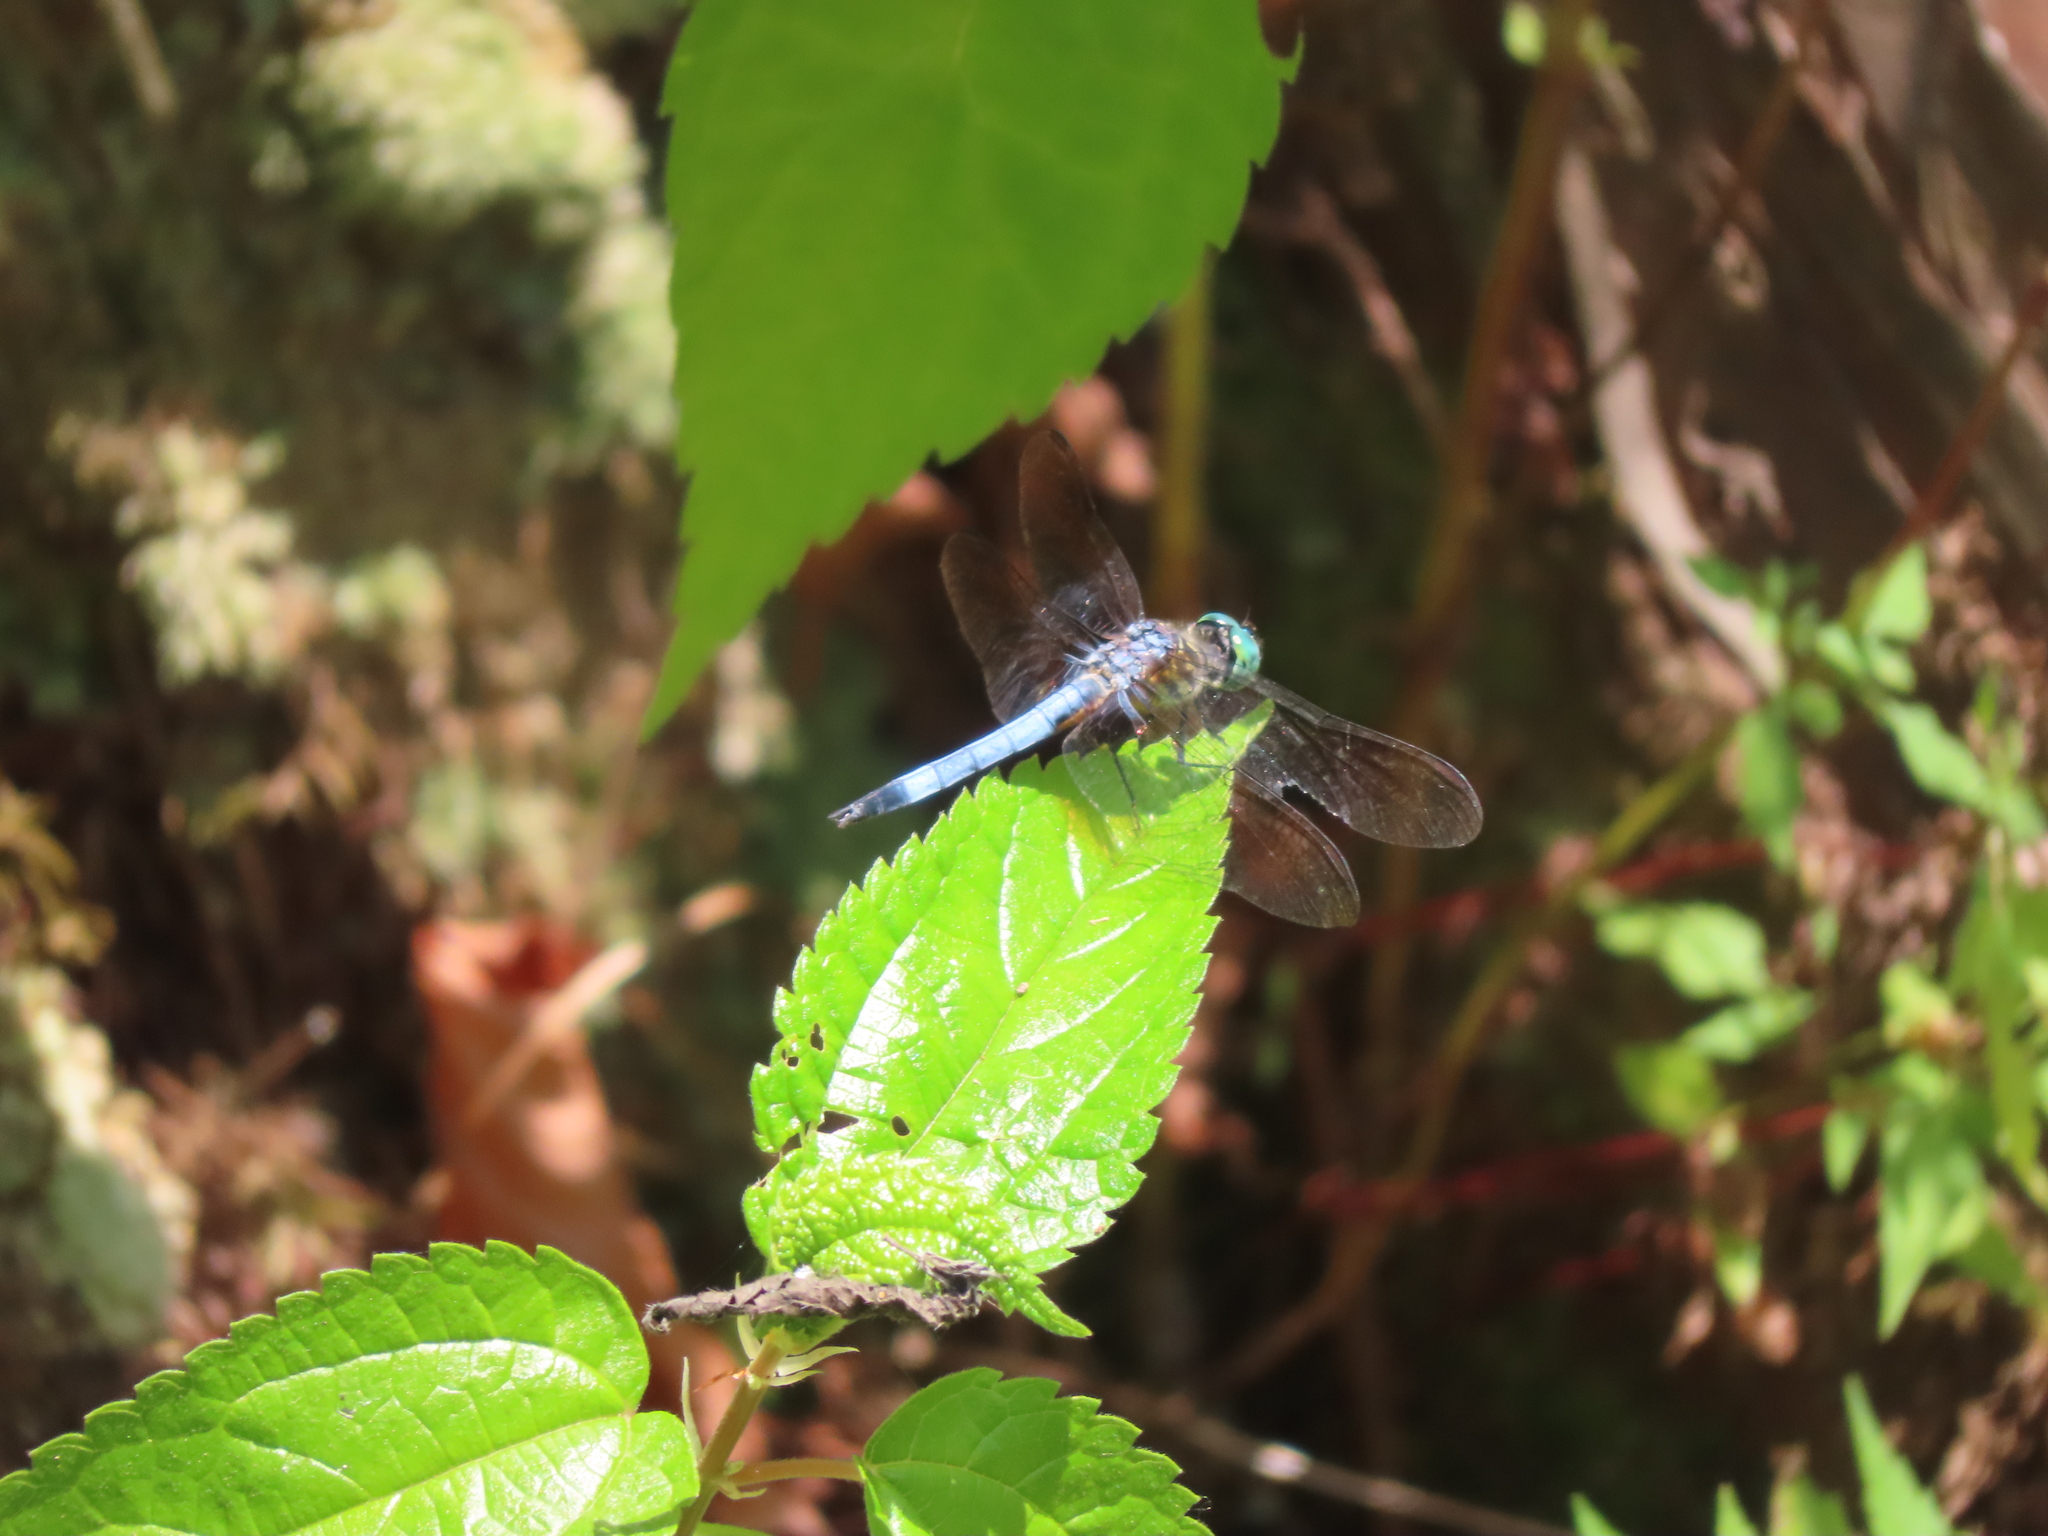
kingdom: Animalia
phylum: Arthropoda
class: Insecta
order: Odonata
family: Libellulidae
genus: Pachydiplax
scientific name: Pachydiplax longipennis
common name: Blue dasher
